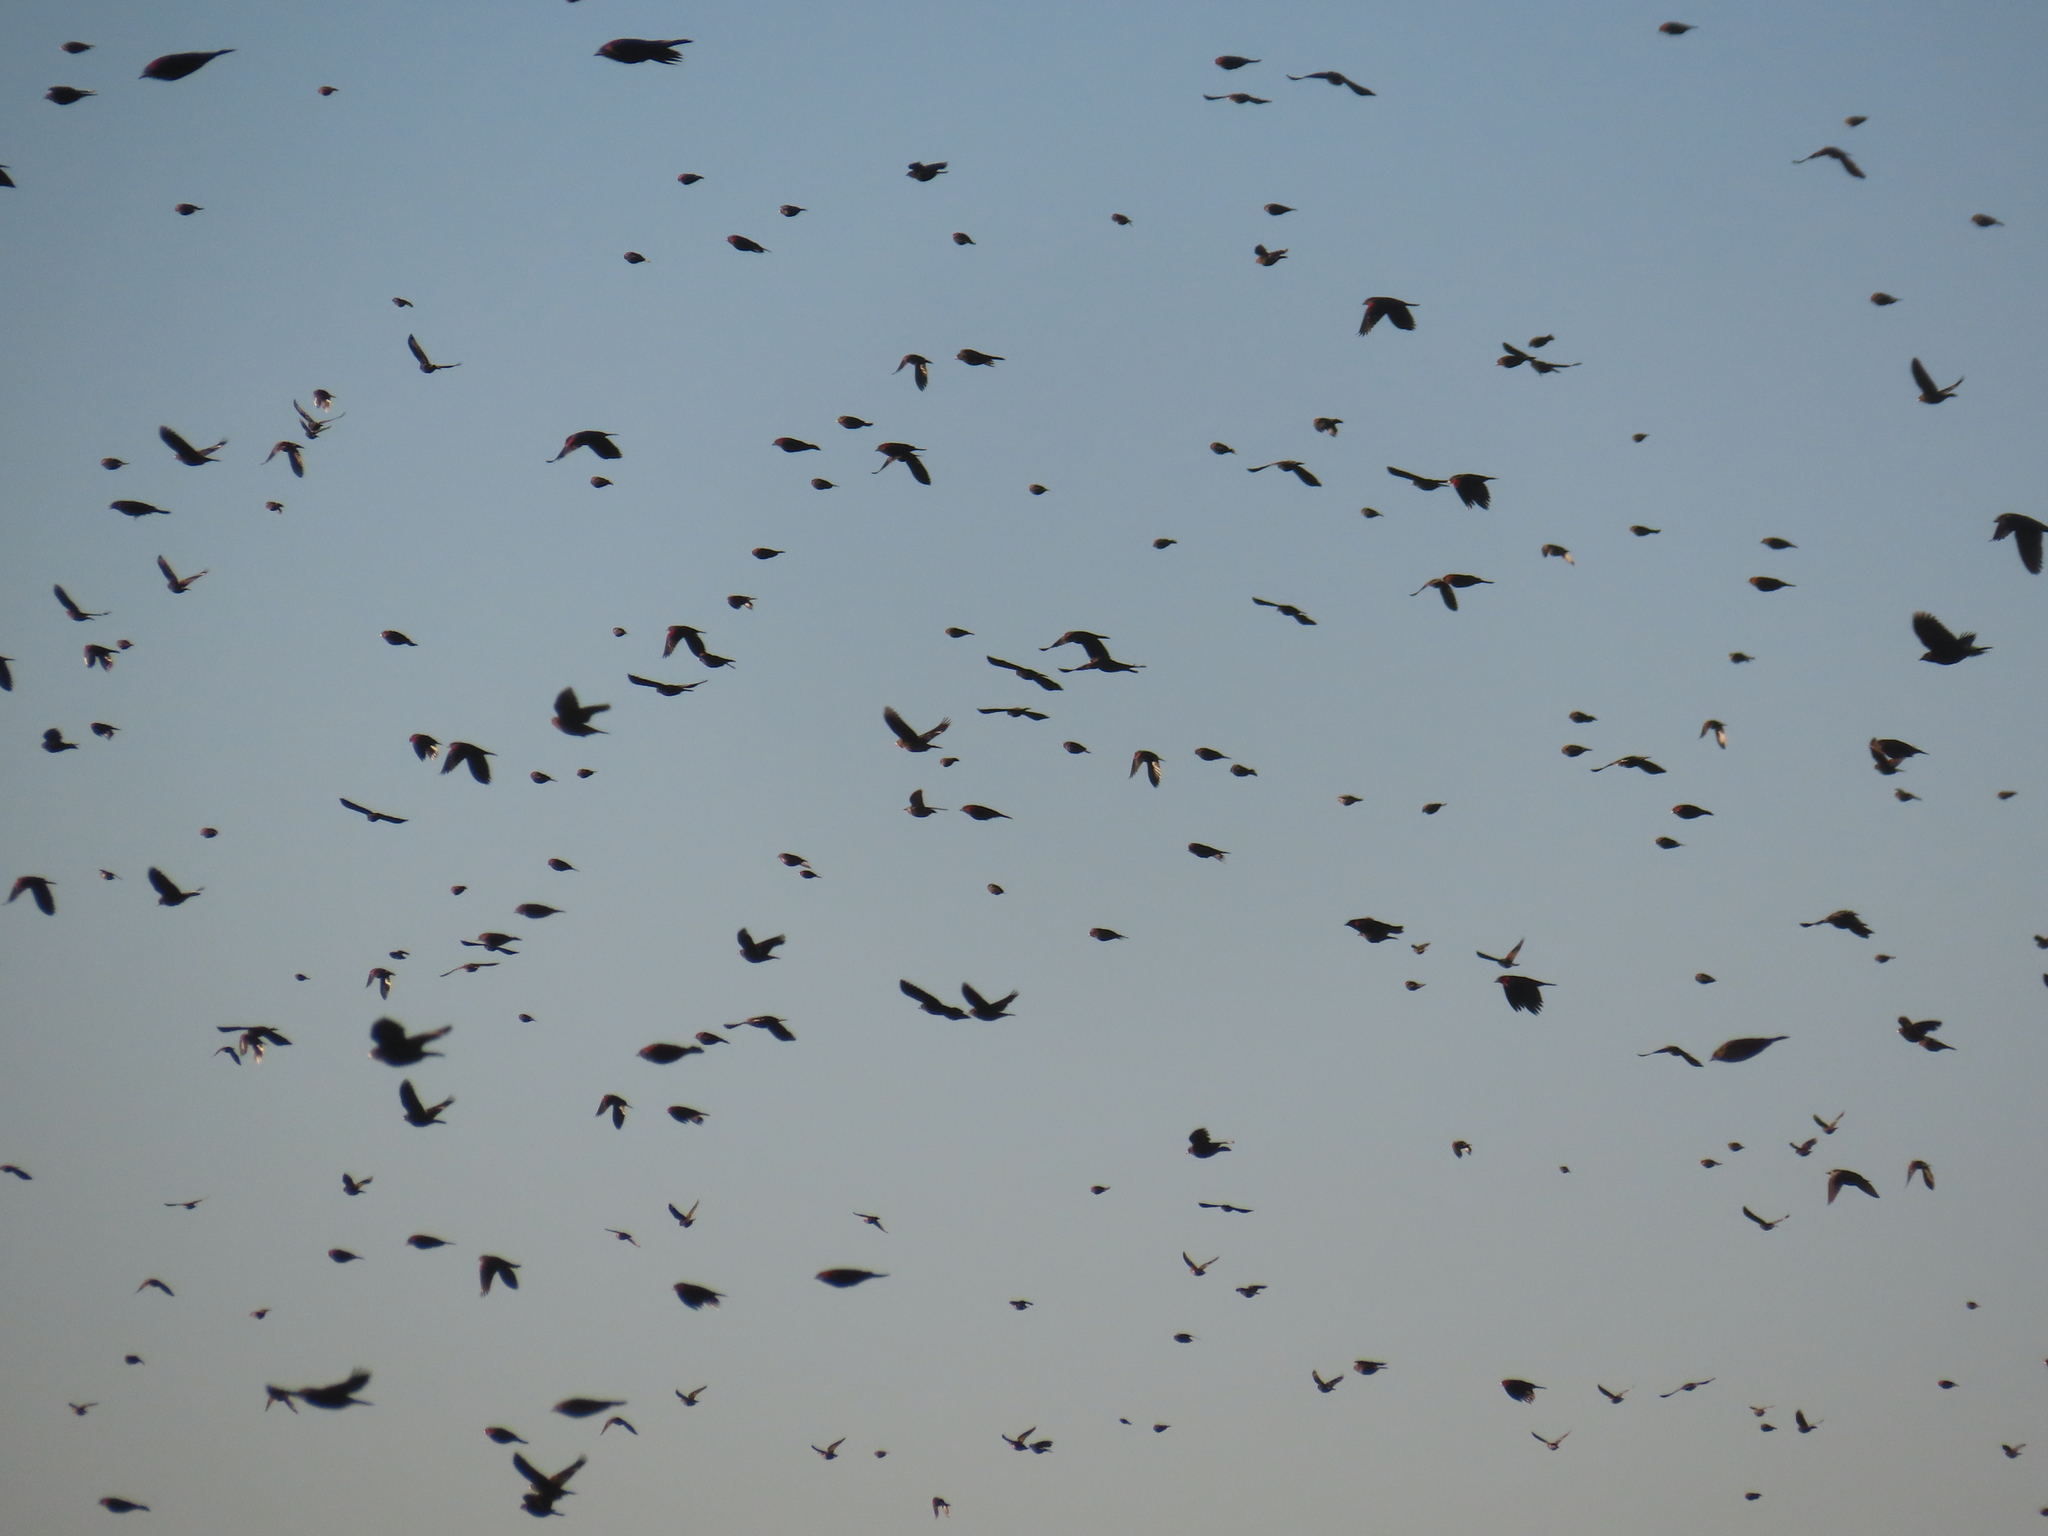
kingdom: Animalia
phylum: Chordata
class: Aves
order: Passeriformes
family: Icteridae
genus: Agelaius
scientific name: Agelaius phoeniceus
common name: Red-winged blackbird
